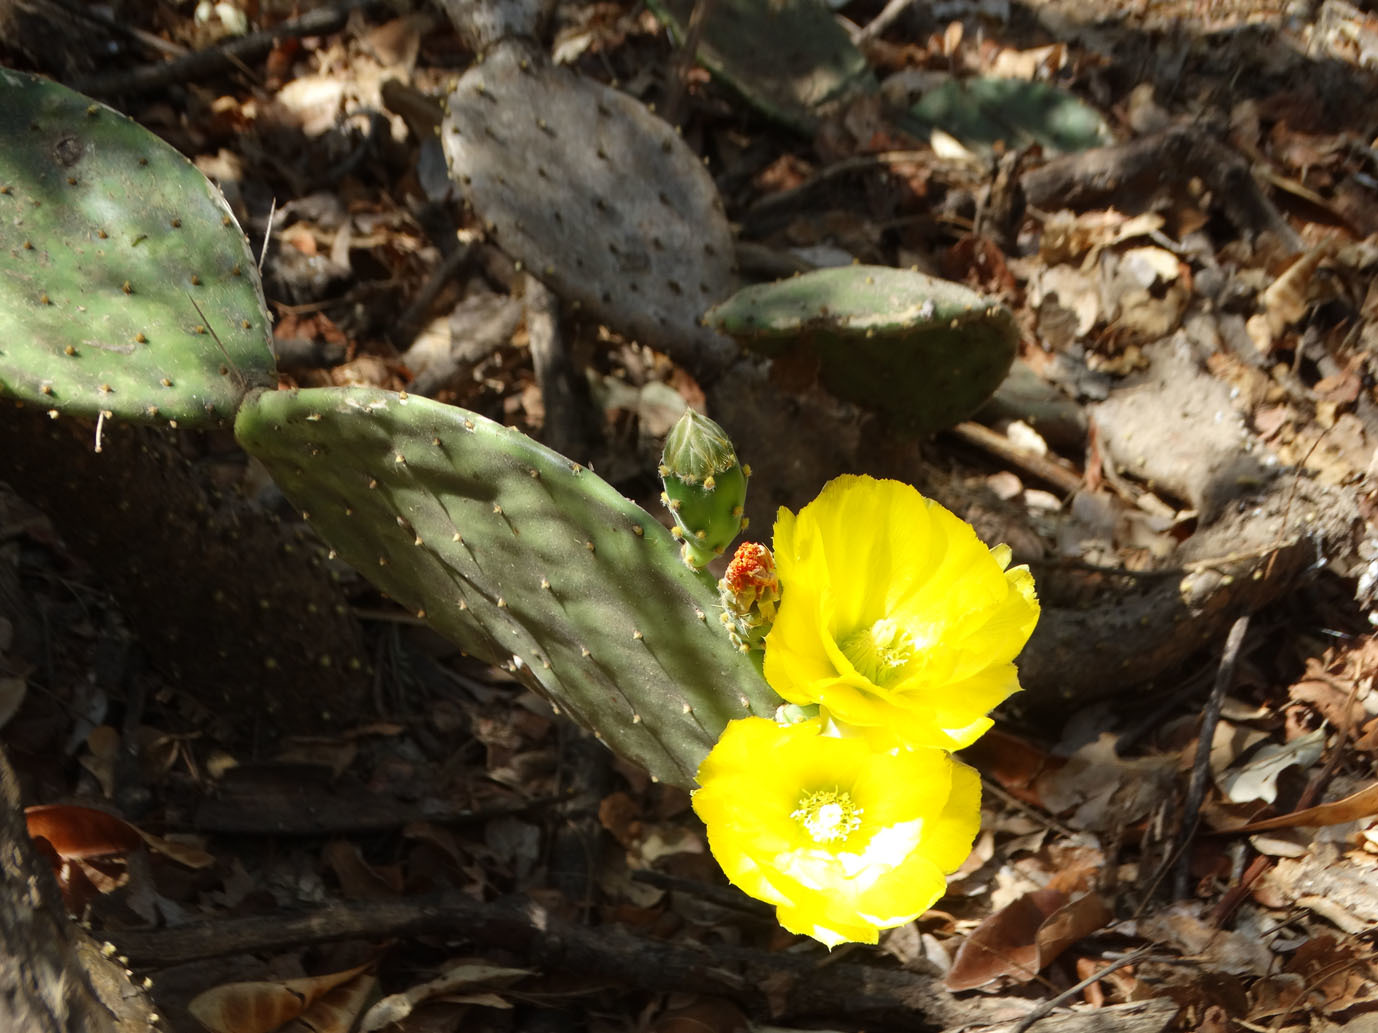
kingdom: Plantae
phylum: Tracheophyta
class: Magnoliopsida
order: Caryophyllales
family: Cactaceae
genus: Opuntia
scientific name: Opuntia decumbens
